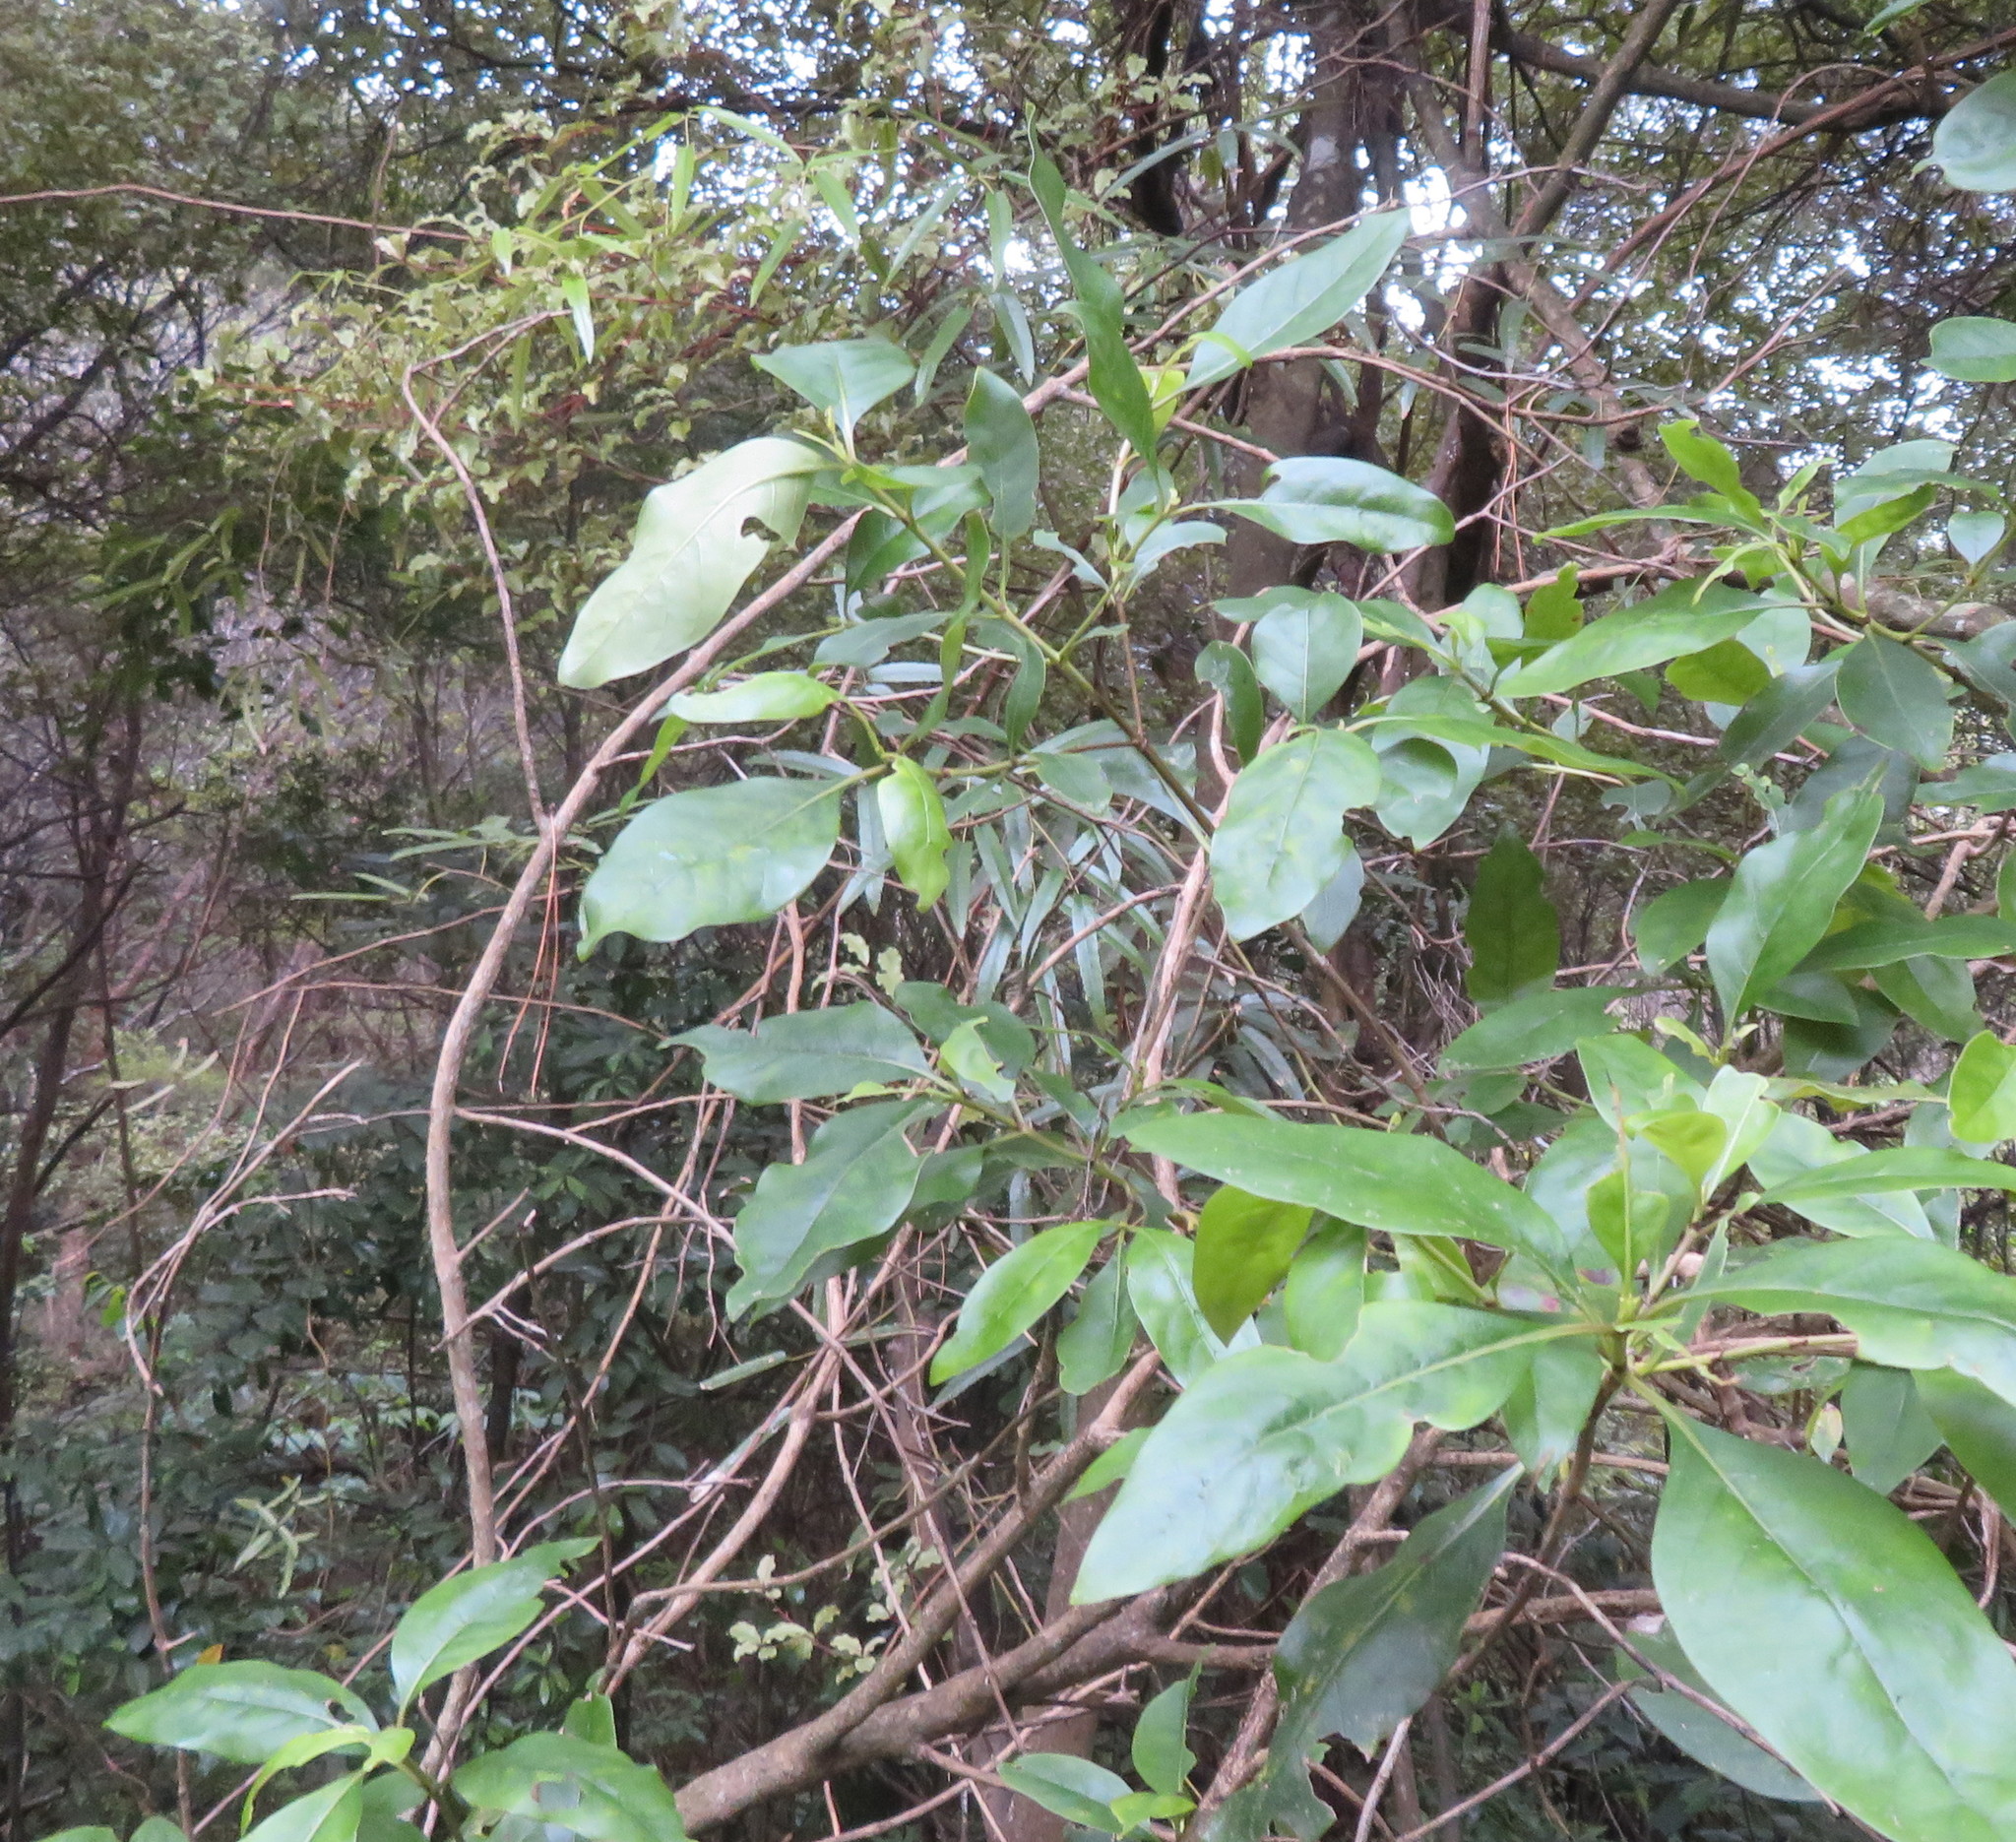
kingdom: Plantae
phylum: Tracheophyta
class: Magnoliopsida
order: Rosales
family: Rosaceae
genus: Rubus
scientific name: Rubus cissoides
